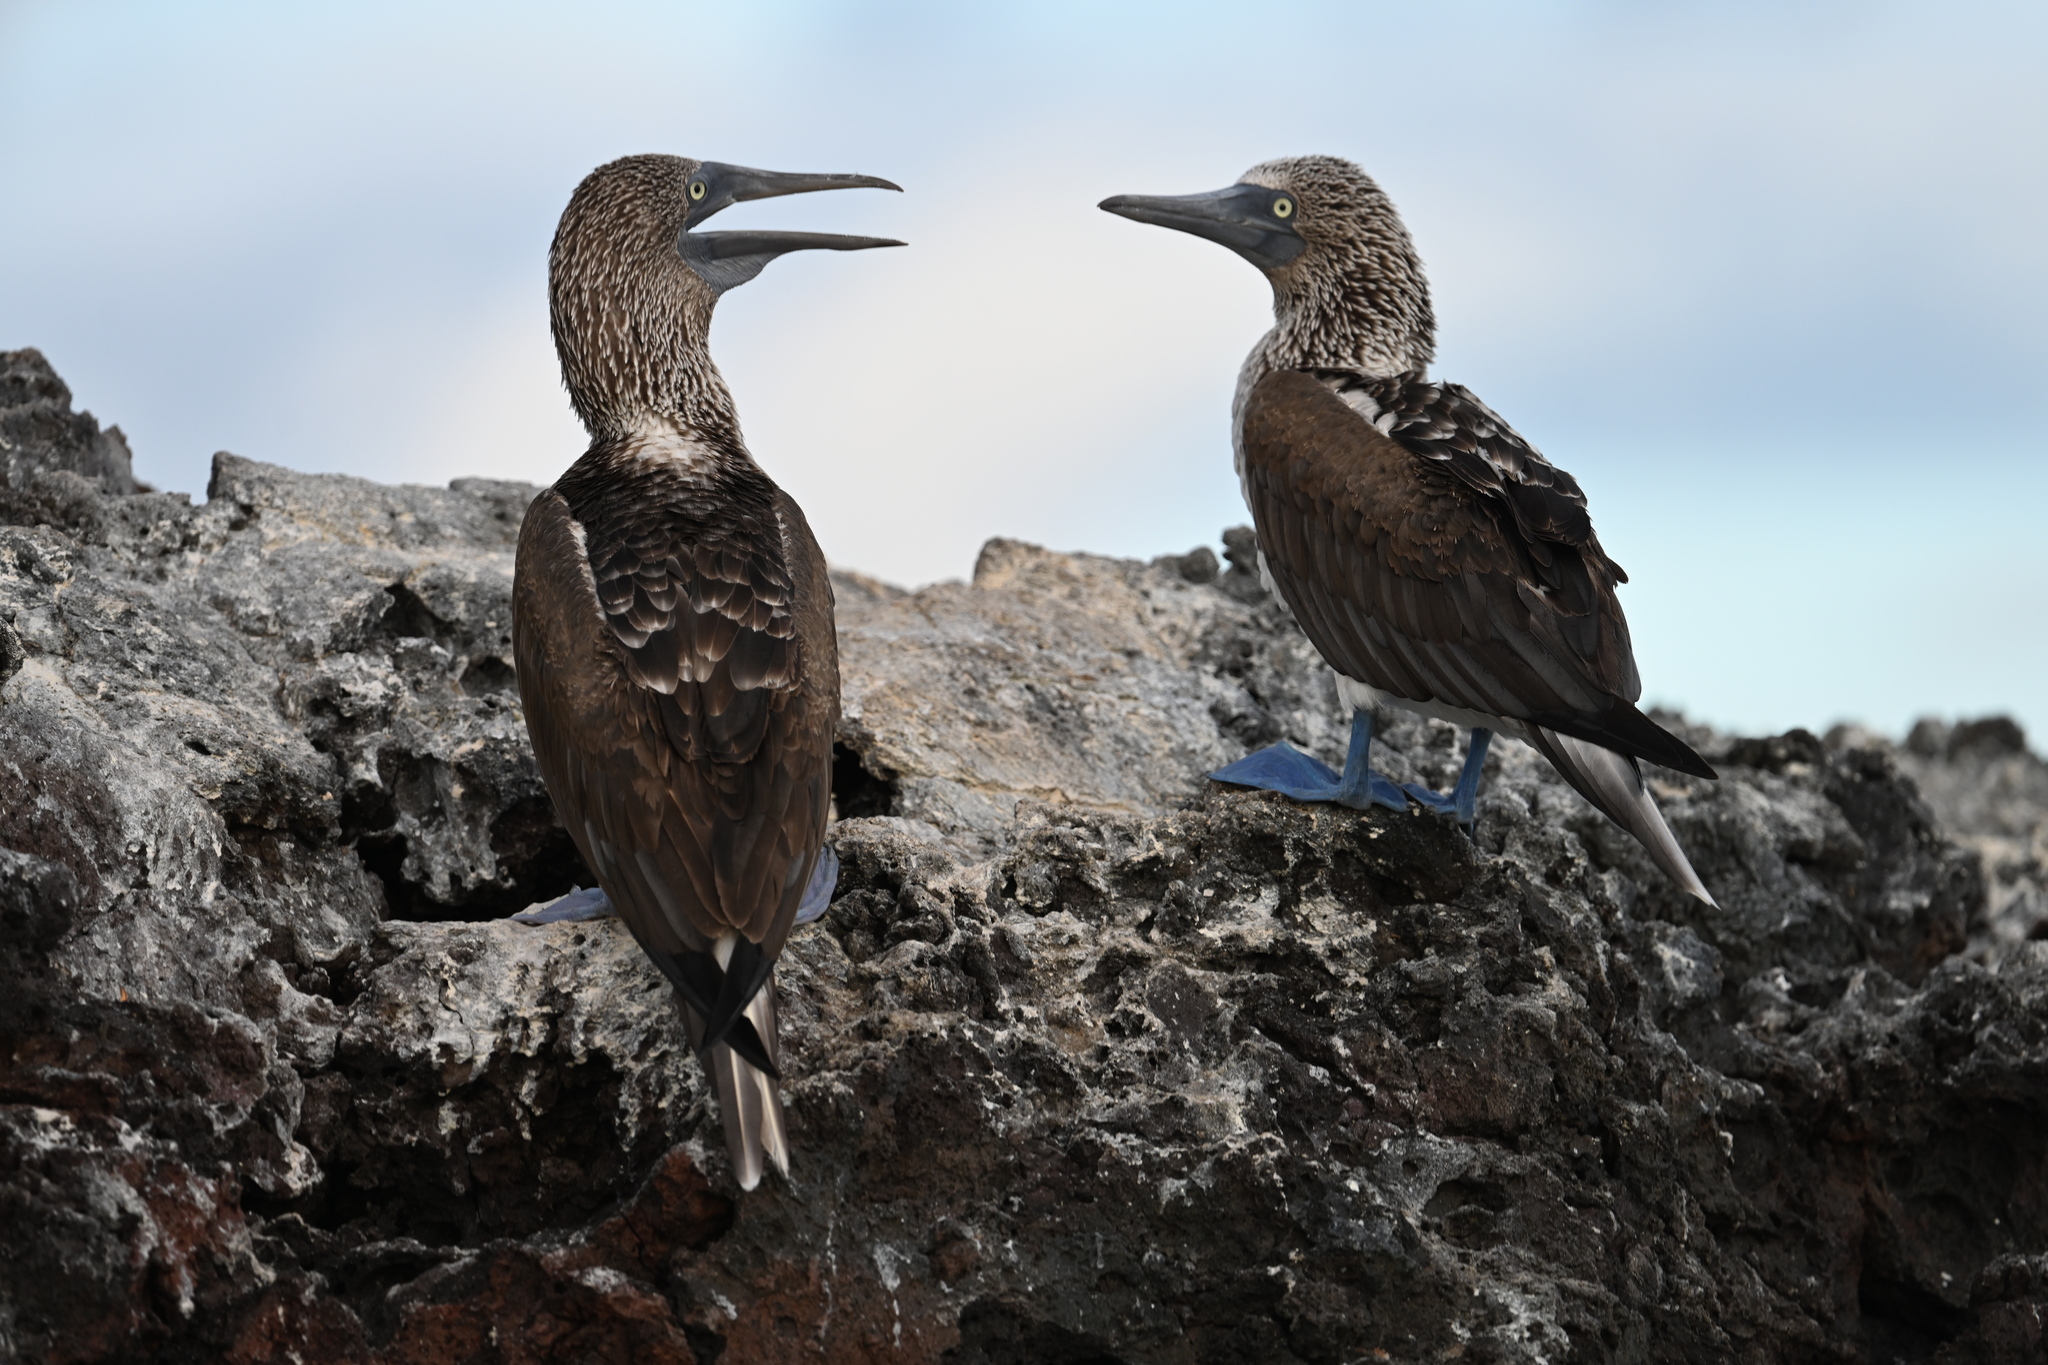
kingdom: Animalia
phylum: Chordata
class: Aves
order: Suliformes
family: Sulidae
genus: Sula
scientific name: Sula nebouxii
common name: Blue-footed booby
